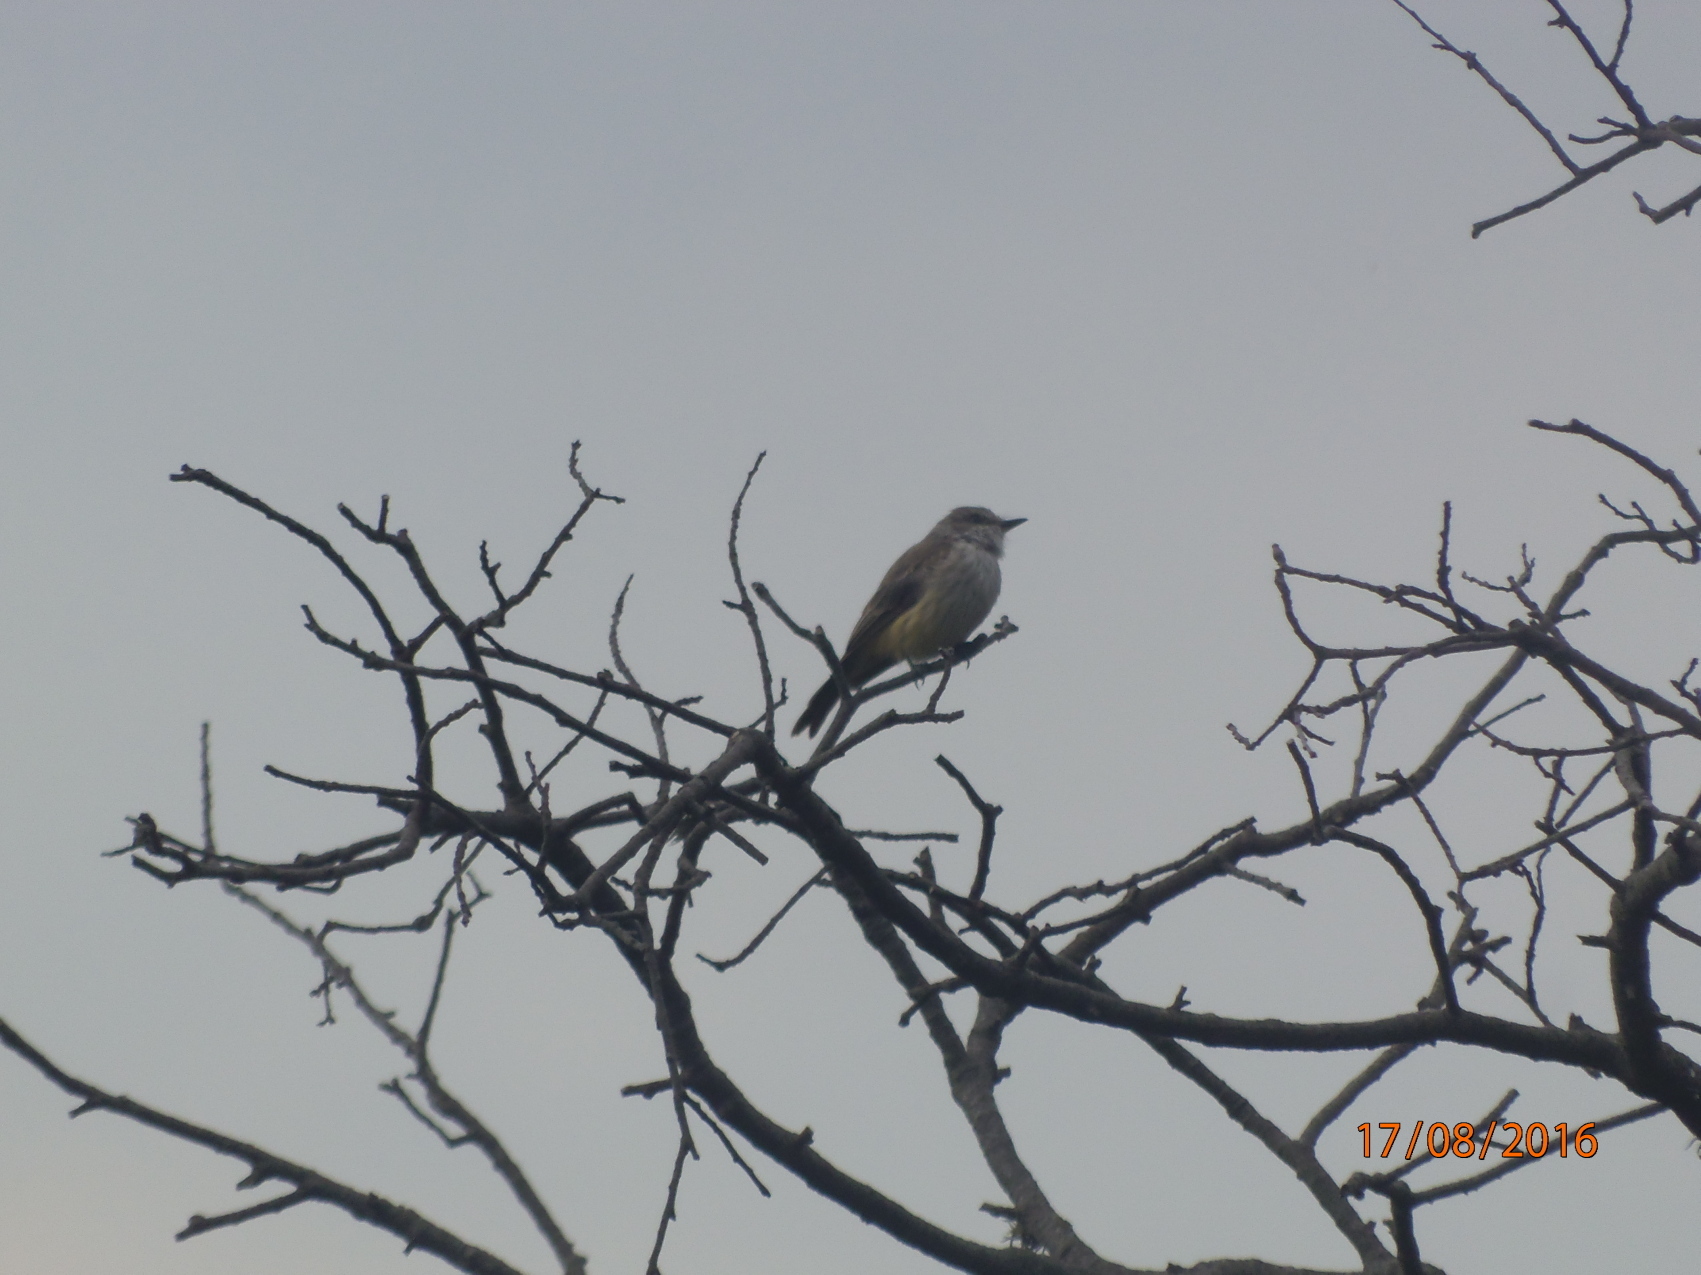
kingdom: Animalia
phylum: Chordata
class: Aves
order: Passeriformes
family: Tyrannidae
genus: Pyrocephalus
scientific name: Pyrocephalus rubinus
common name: Vermilion flycatcher
